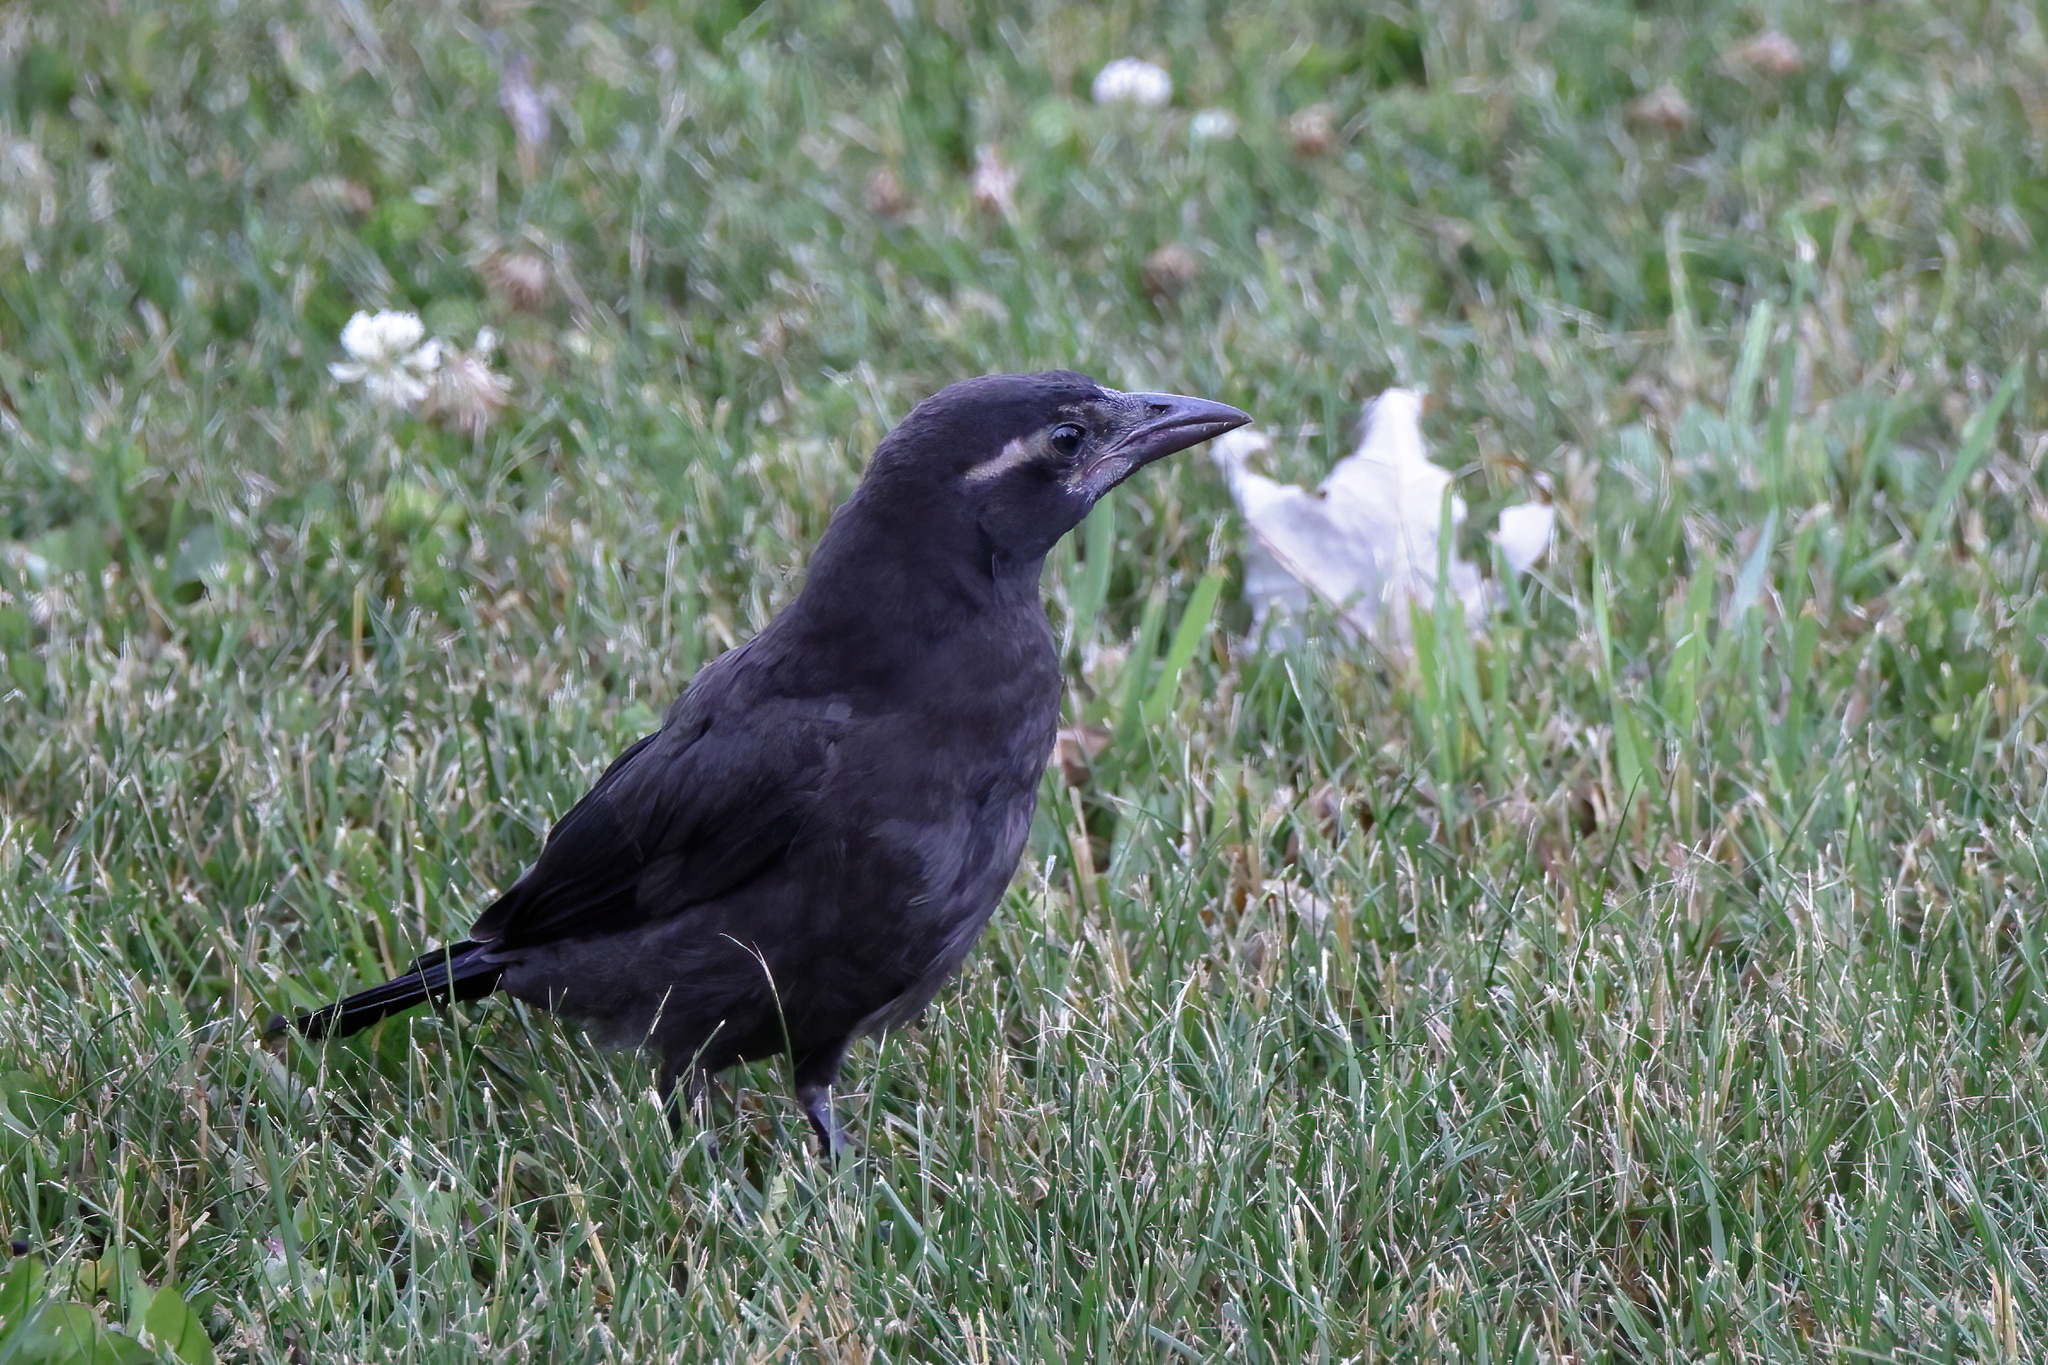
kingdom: Animalia
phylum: Chordata
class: Aves
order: Passeriformes
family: Icteridae
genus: Quiscalus
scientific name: Quiscalus quiscula
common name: Common grackle
